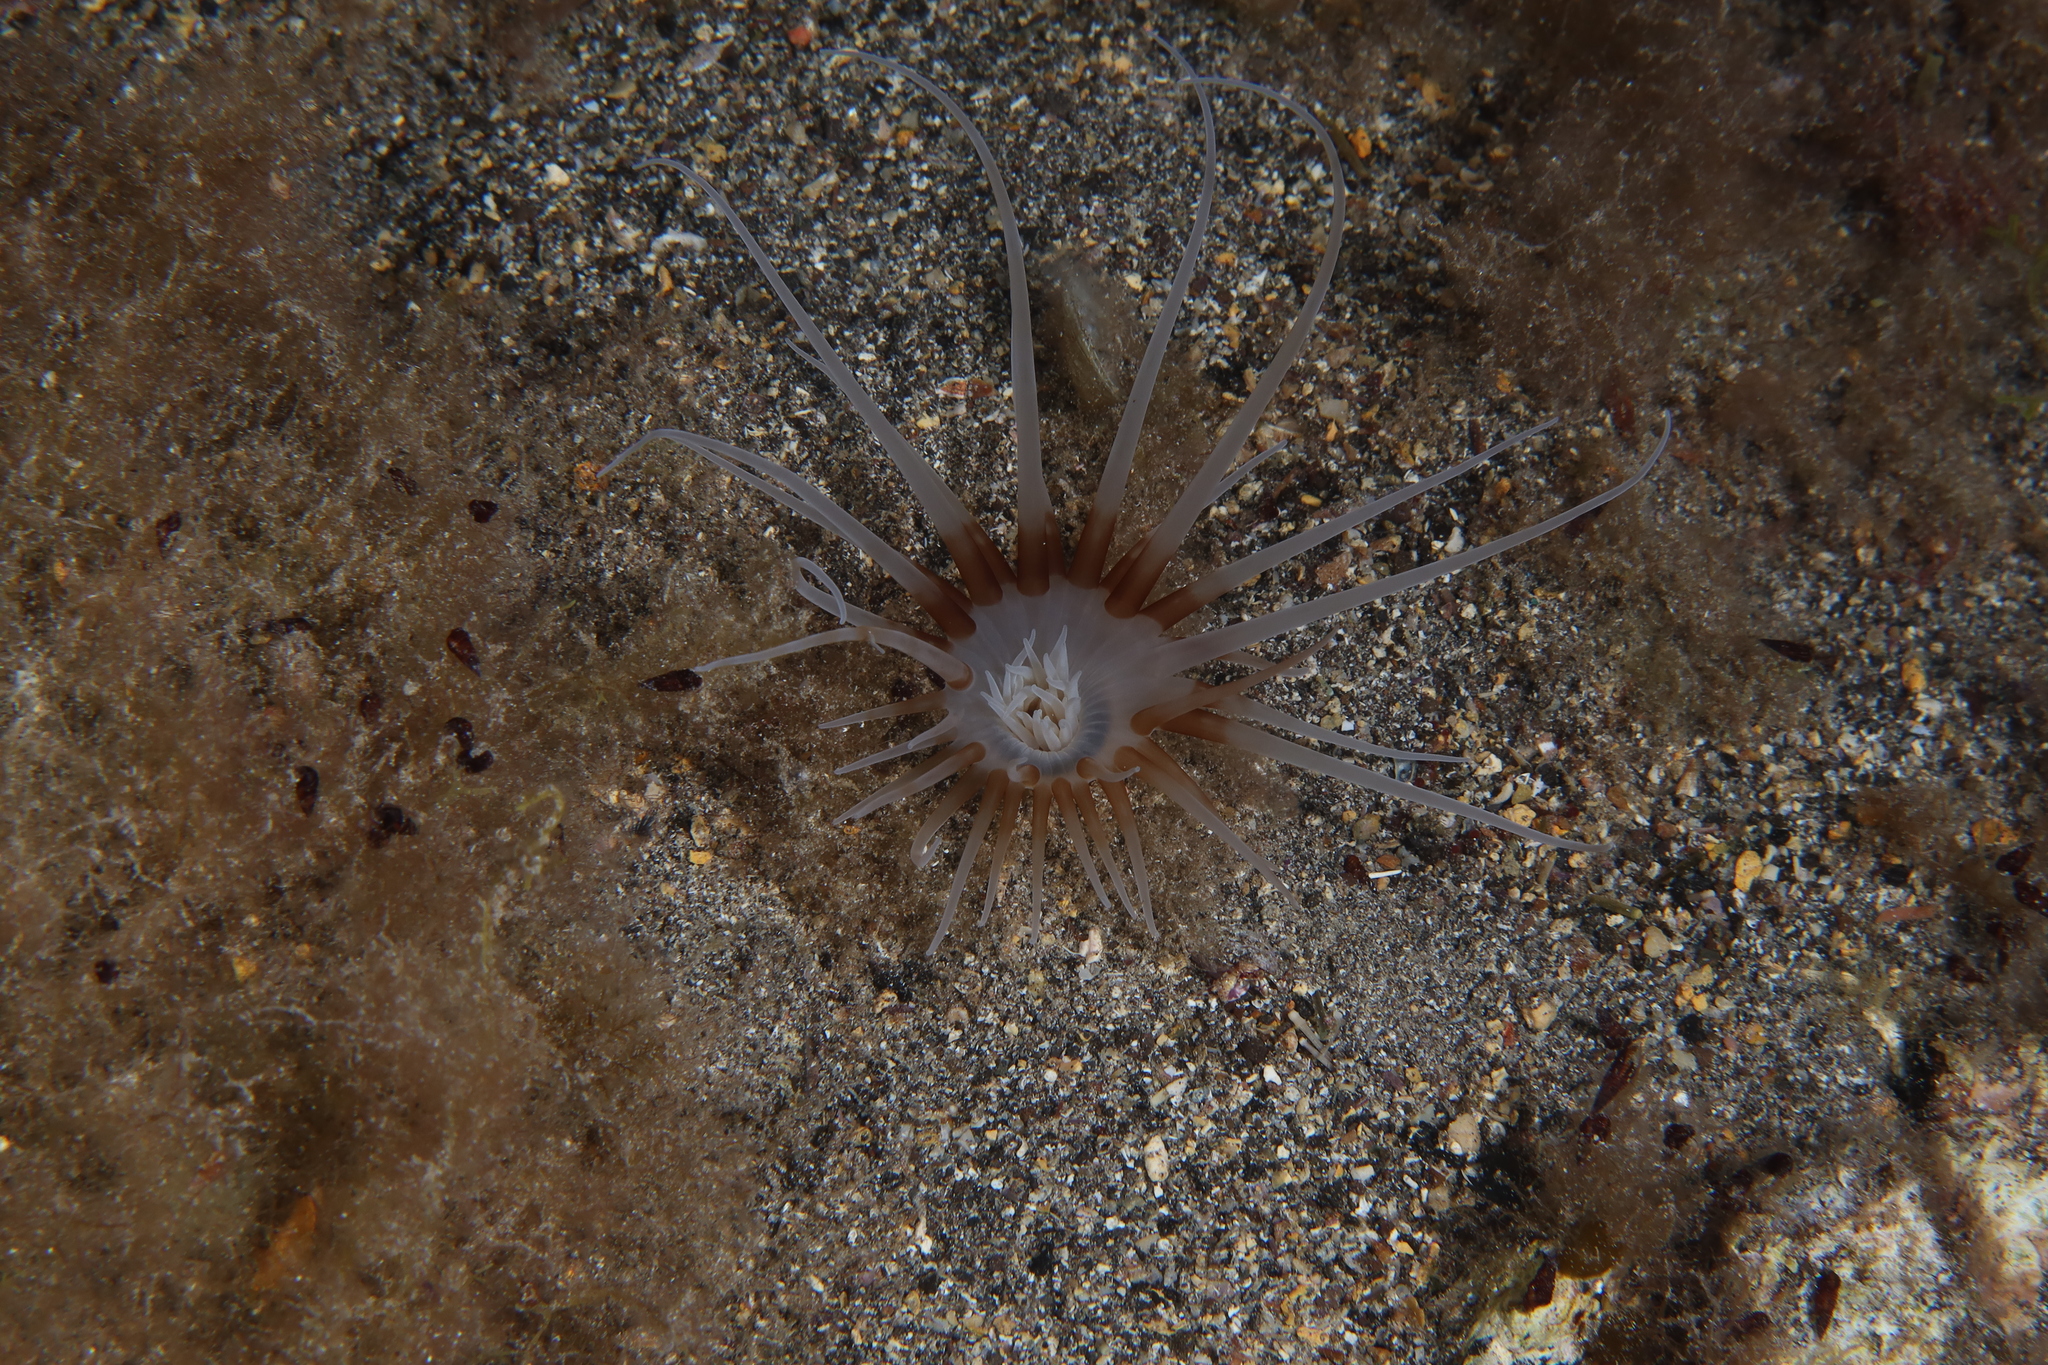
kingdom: Animalia
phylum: Cnidaria
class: Anthozoa
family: Arachnactidae
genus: Isarachnanthus
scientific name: Isarachnanthus maderensis
